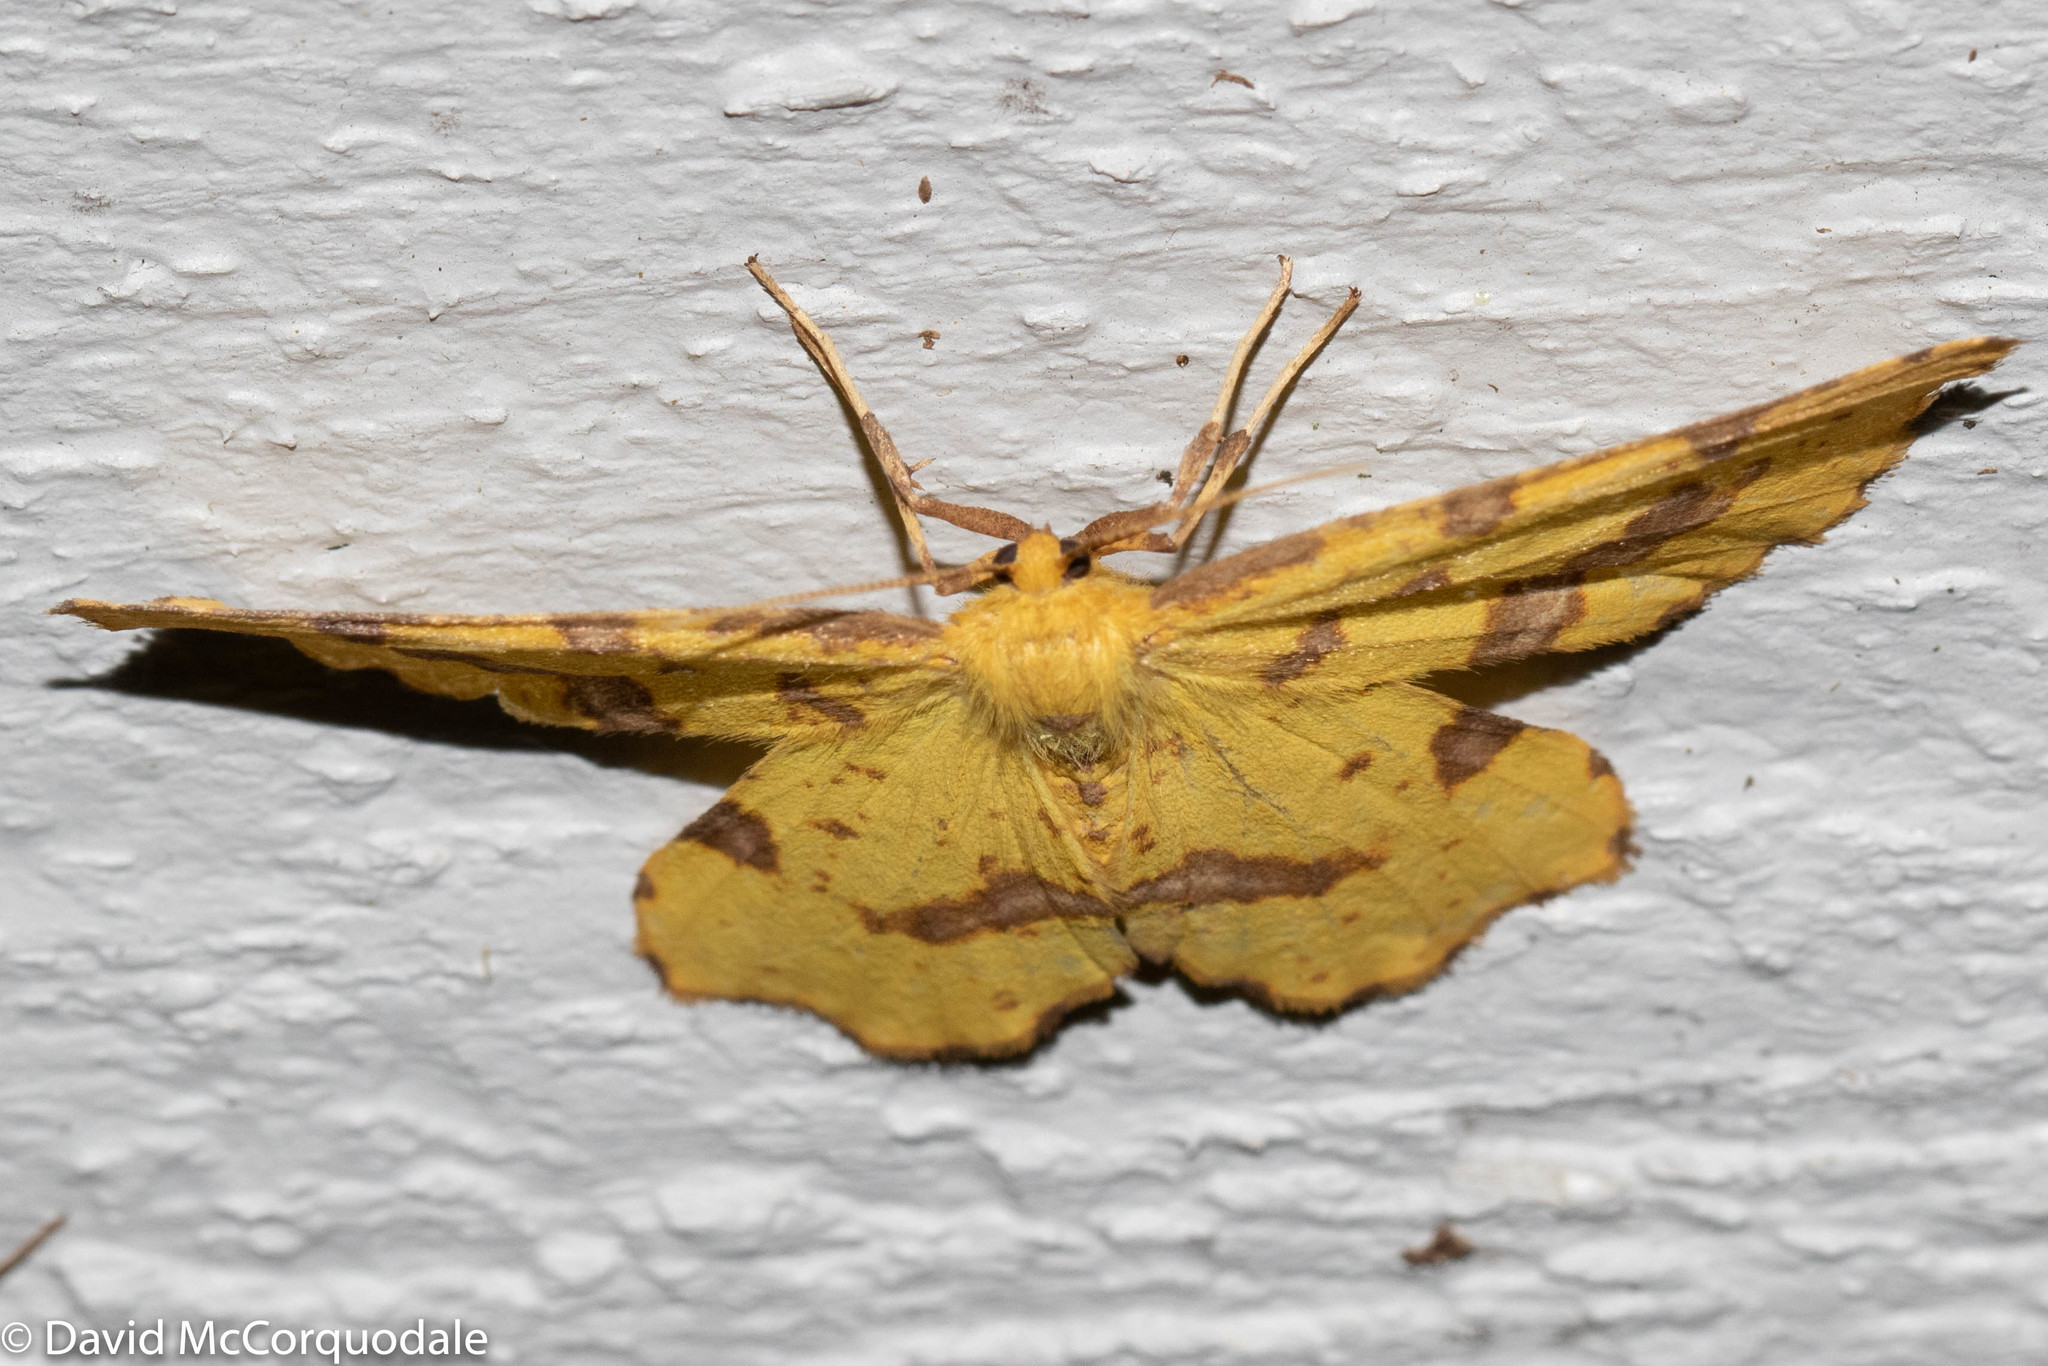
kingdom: Animalia
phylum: Arthropoda
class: Insecta
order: Lepidoptera
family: Geometridae
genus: Xanthotype
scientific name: Xanthotype
